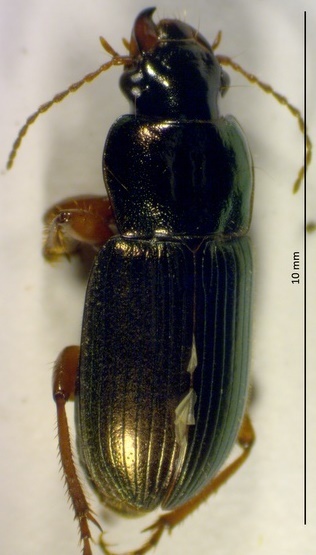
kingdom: Animalia
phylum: Arthropoda
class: Insecta
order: Coleoptera
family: Carabidae
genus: Harpalus
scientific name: Harpalus affinis
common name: Polychrome harp ground beetle
